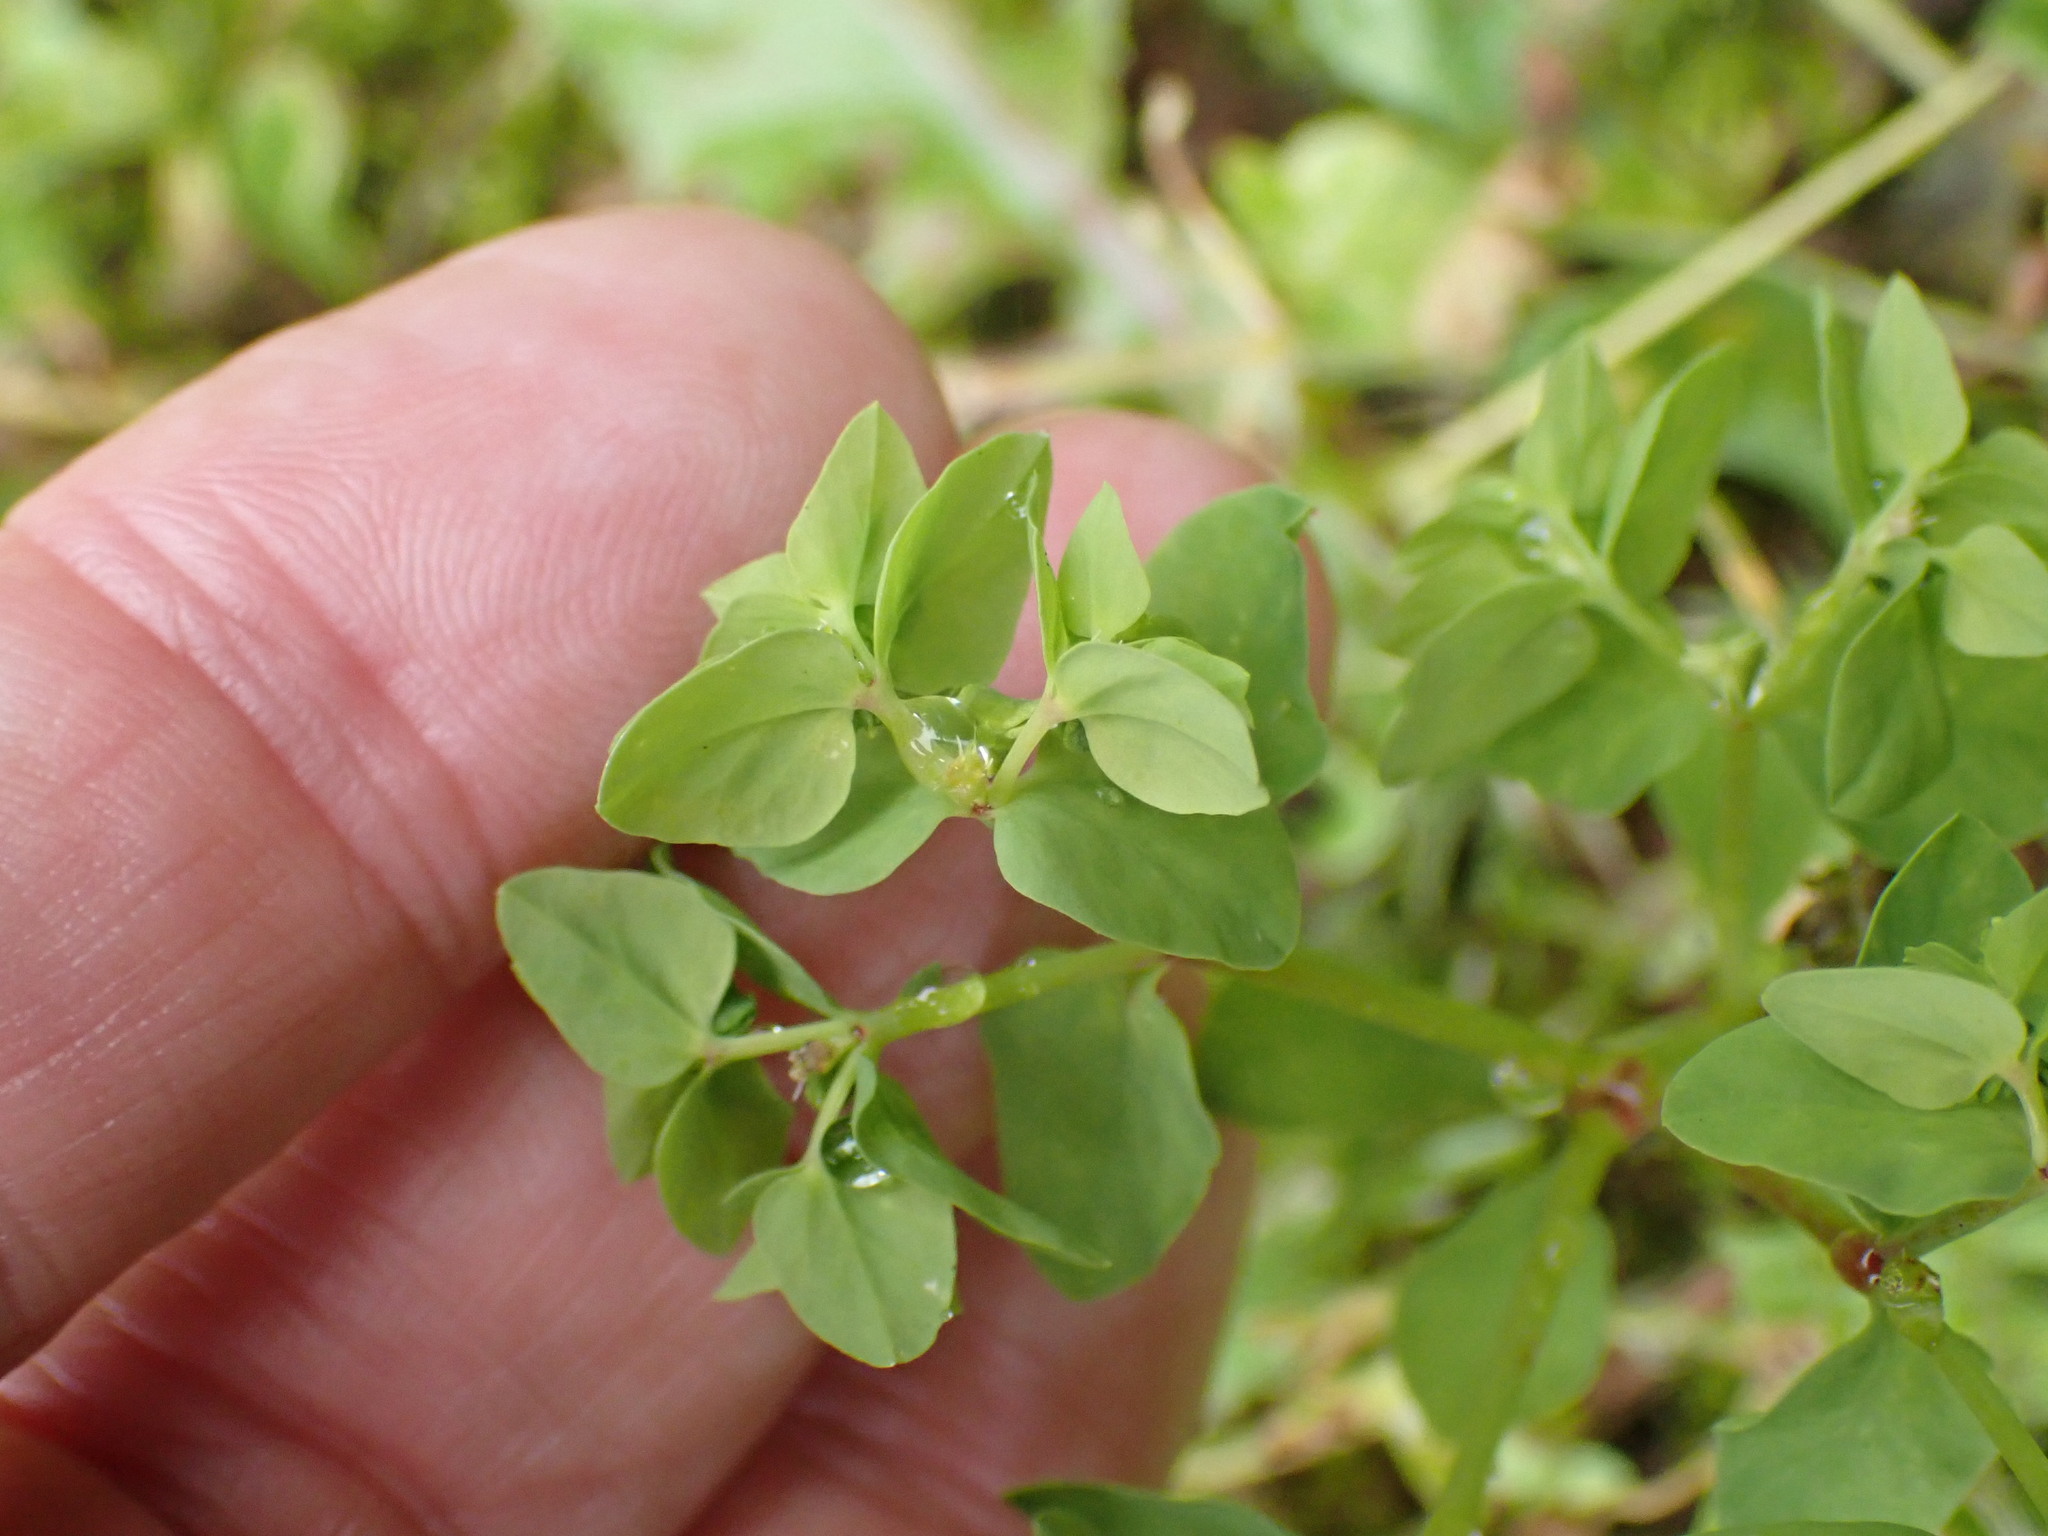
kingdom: Plantae
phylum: Tracheophyta
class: Magnoliopsida
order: Malpighiales
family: Euphorbiaceae
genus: Euphorbia
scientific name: Euphorbia peplus
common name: Petty spurge
